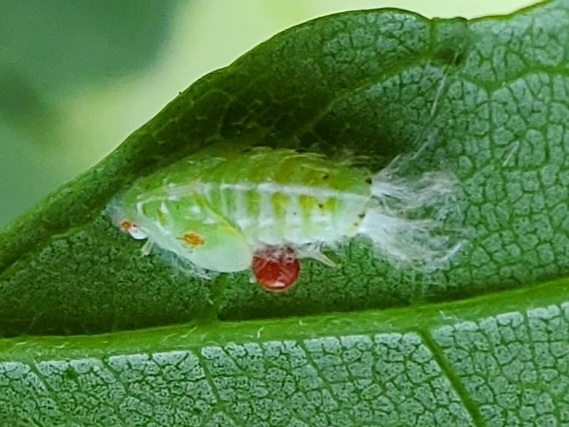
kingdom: Animalia
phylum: Arthropoda
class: Insecta
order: Hemiptera
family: Flatidae
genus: Ormenoides
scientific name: Ormenoides venusta
